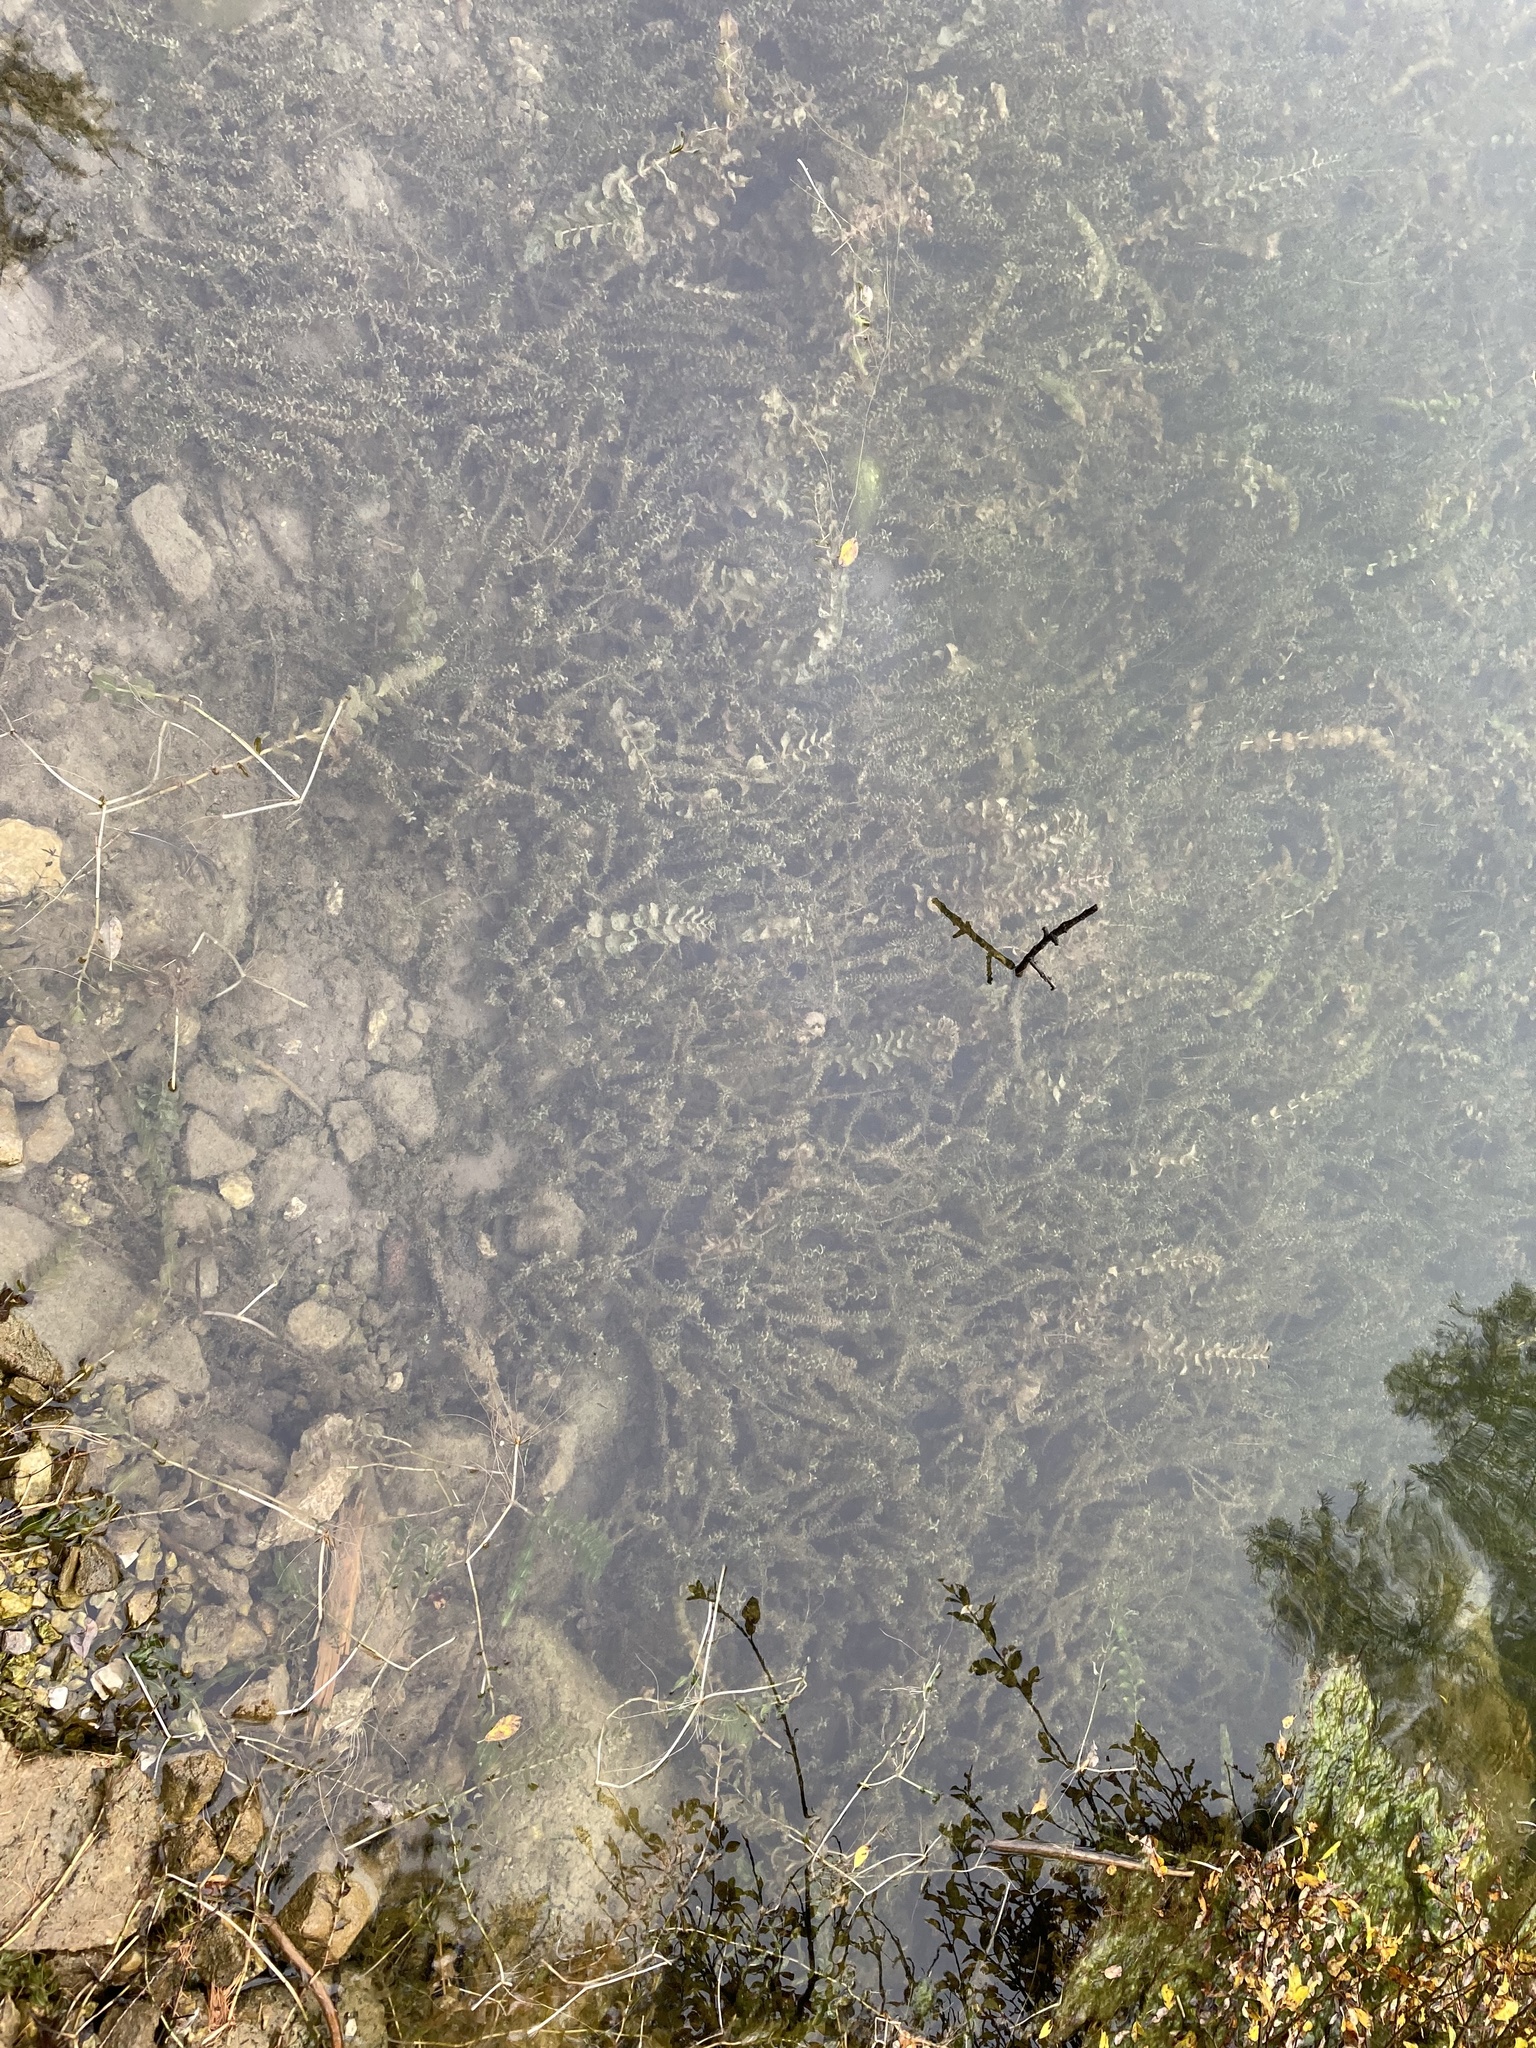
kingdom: Plantae
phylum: Tracheophyta
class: Liliopsida
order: Alismatales
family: Hydrocharitaceae
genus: Elodea
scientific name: Elodea canadensis
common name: Canadian waterweed
